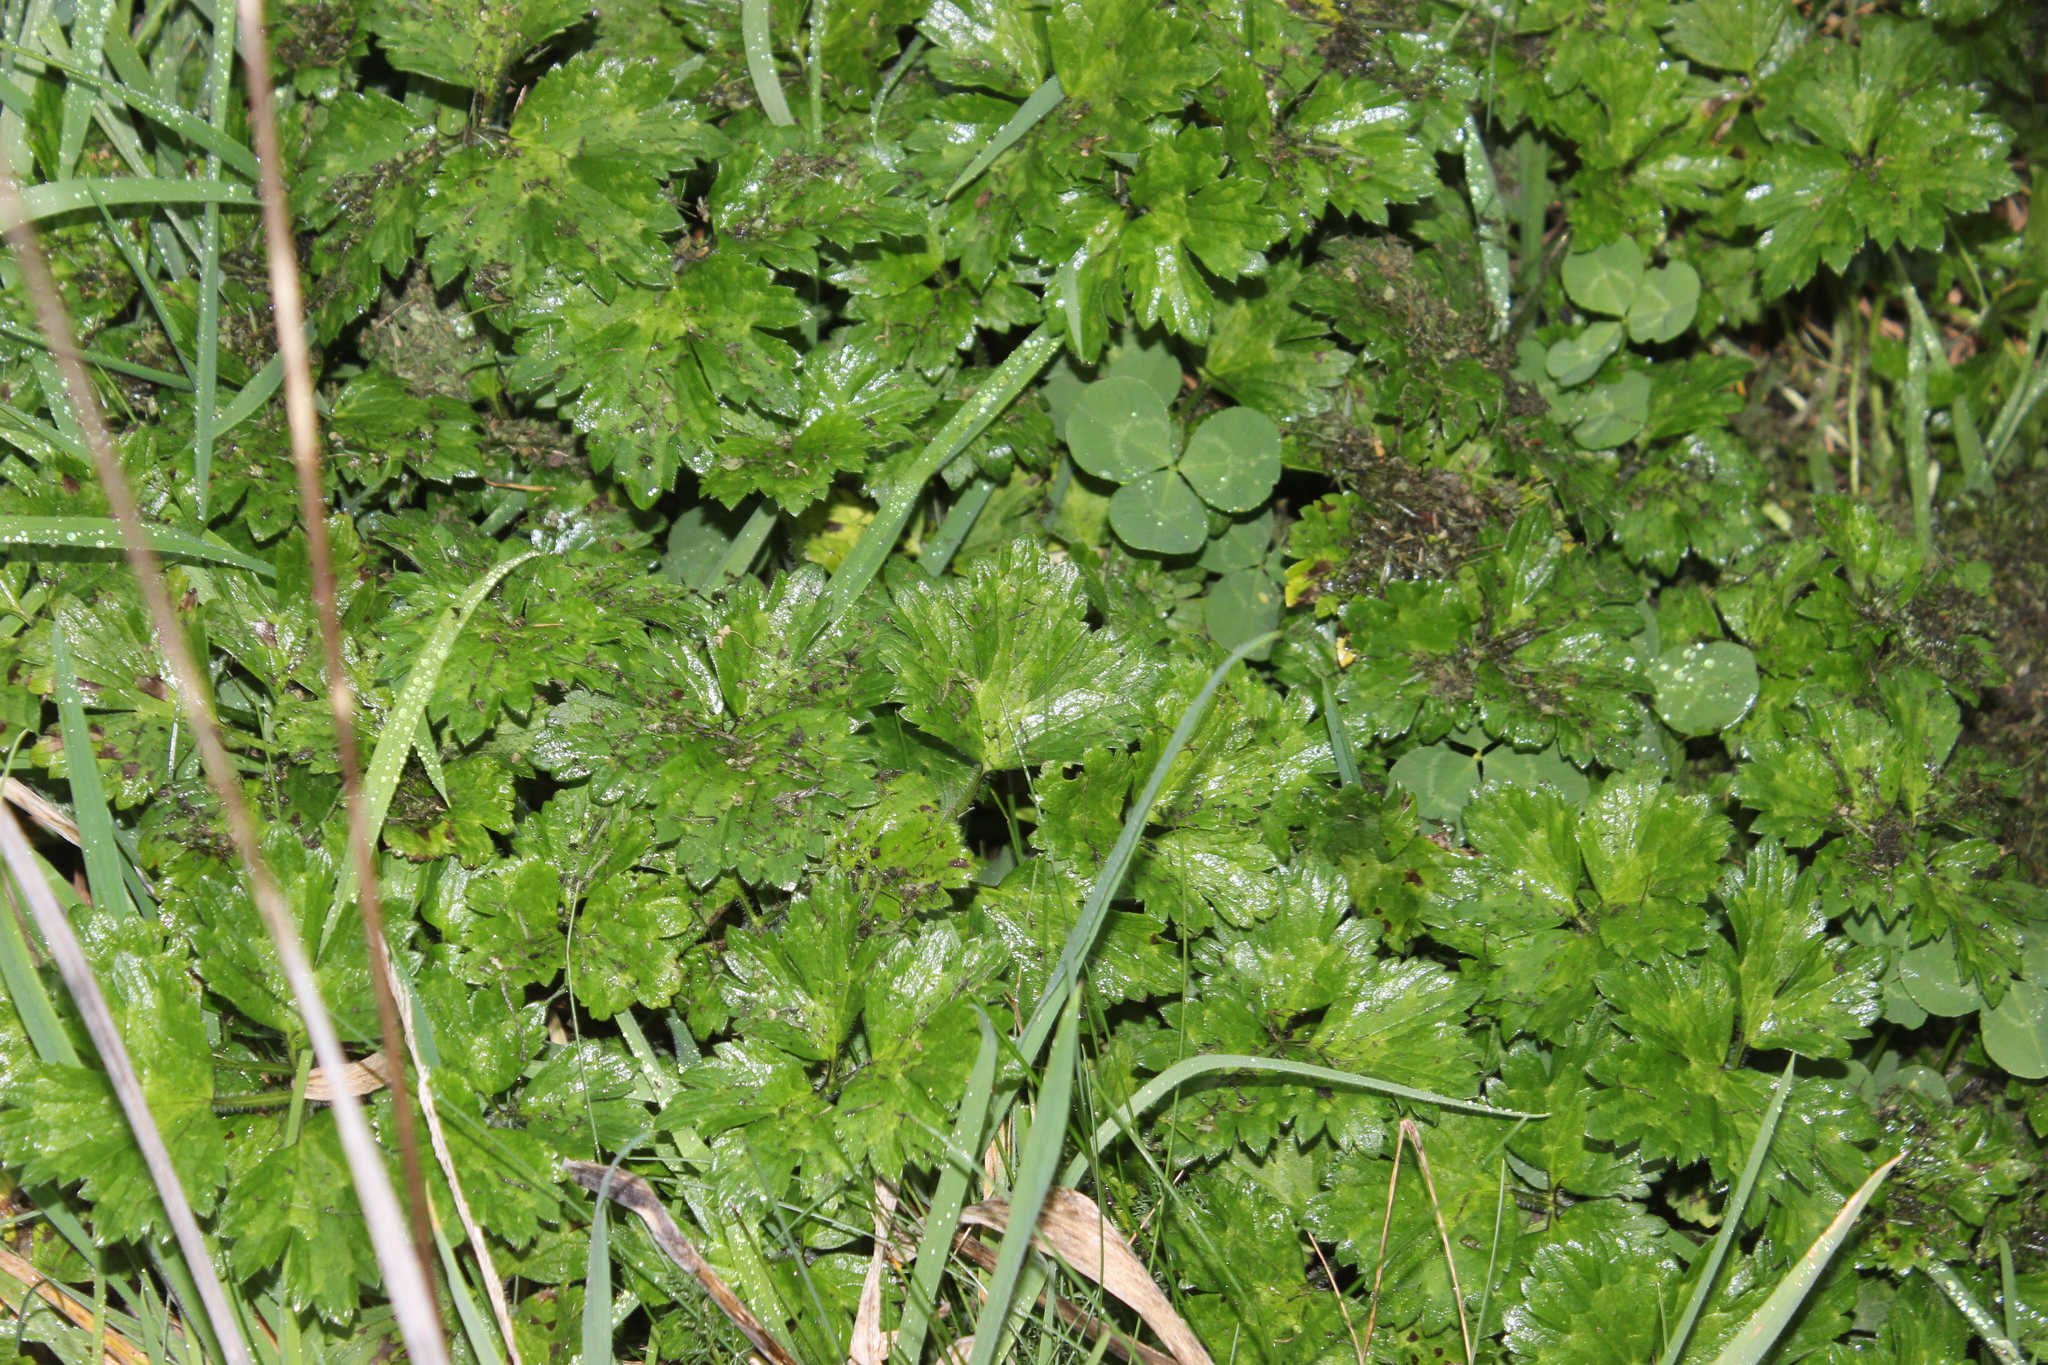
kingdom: Plantae
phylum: Tracheophyta
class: Magnoliopsida
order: Ranunculales
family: Ranunculaceae
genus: Ranunculus
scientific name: Ranunculus repens
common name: Creeping buttercup
